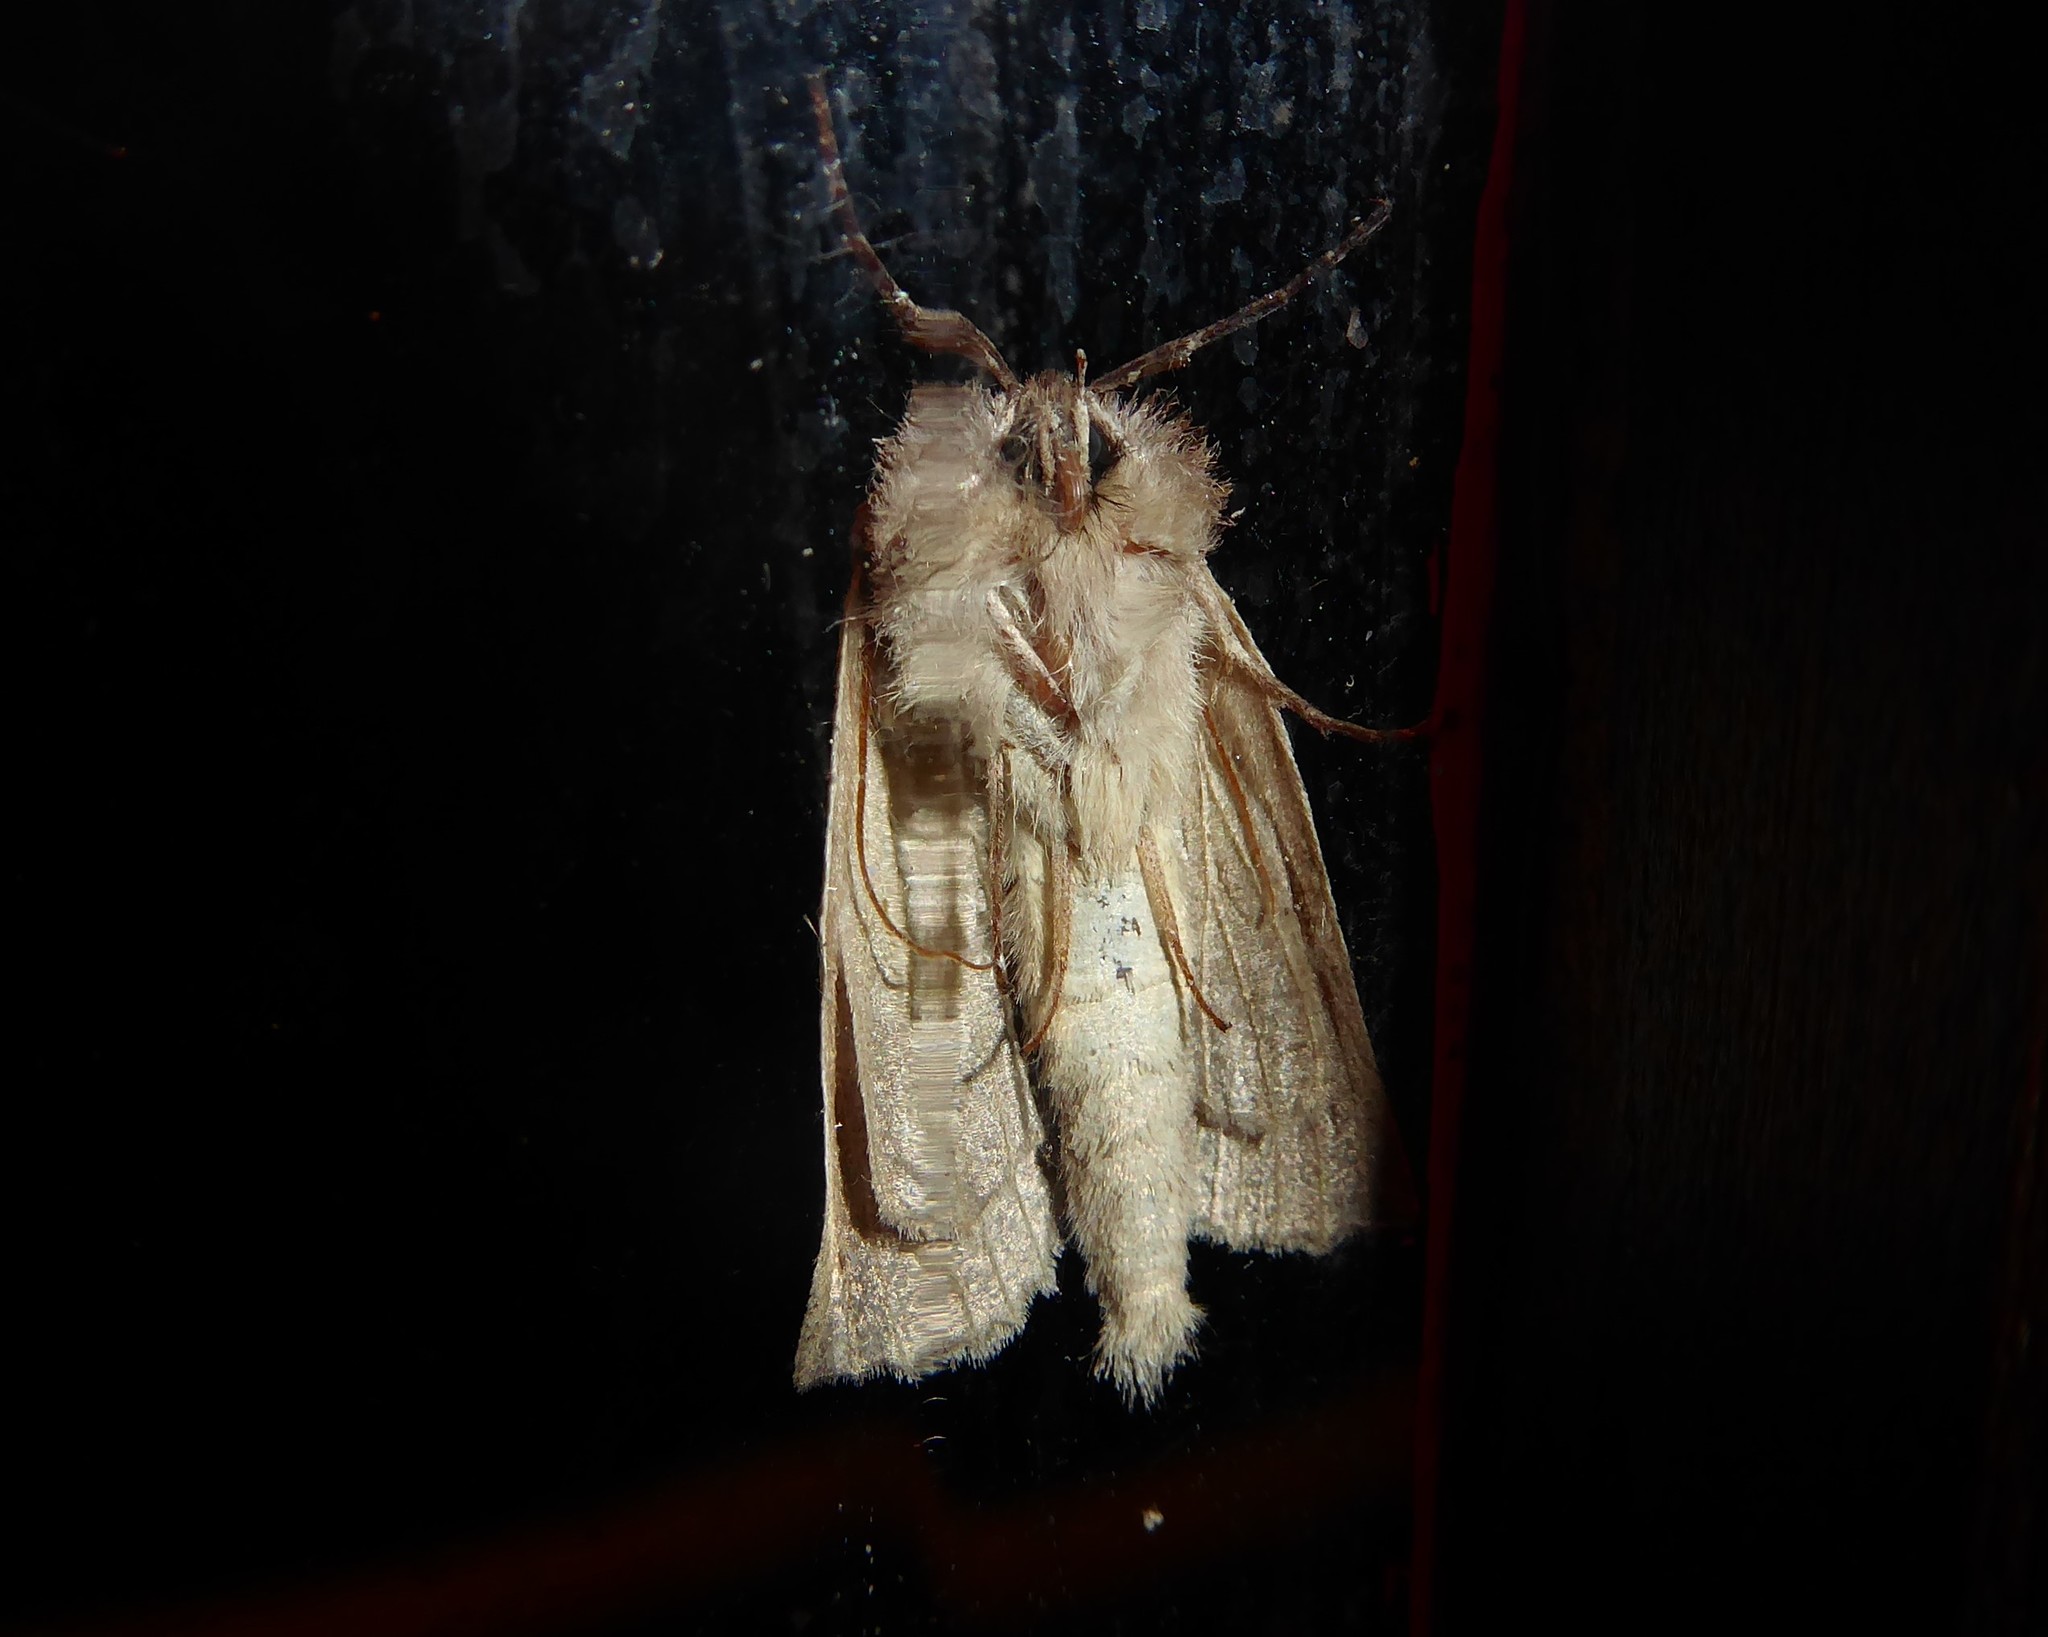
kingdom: Animalia
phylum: Arthropoda
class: Insecta
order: Lepidoptera
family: Geometridae
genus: Declana
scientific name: Declana leptomera
